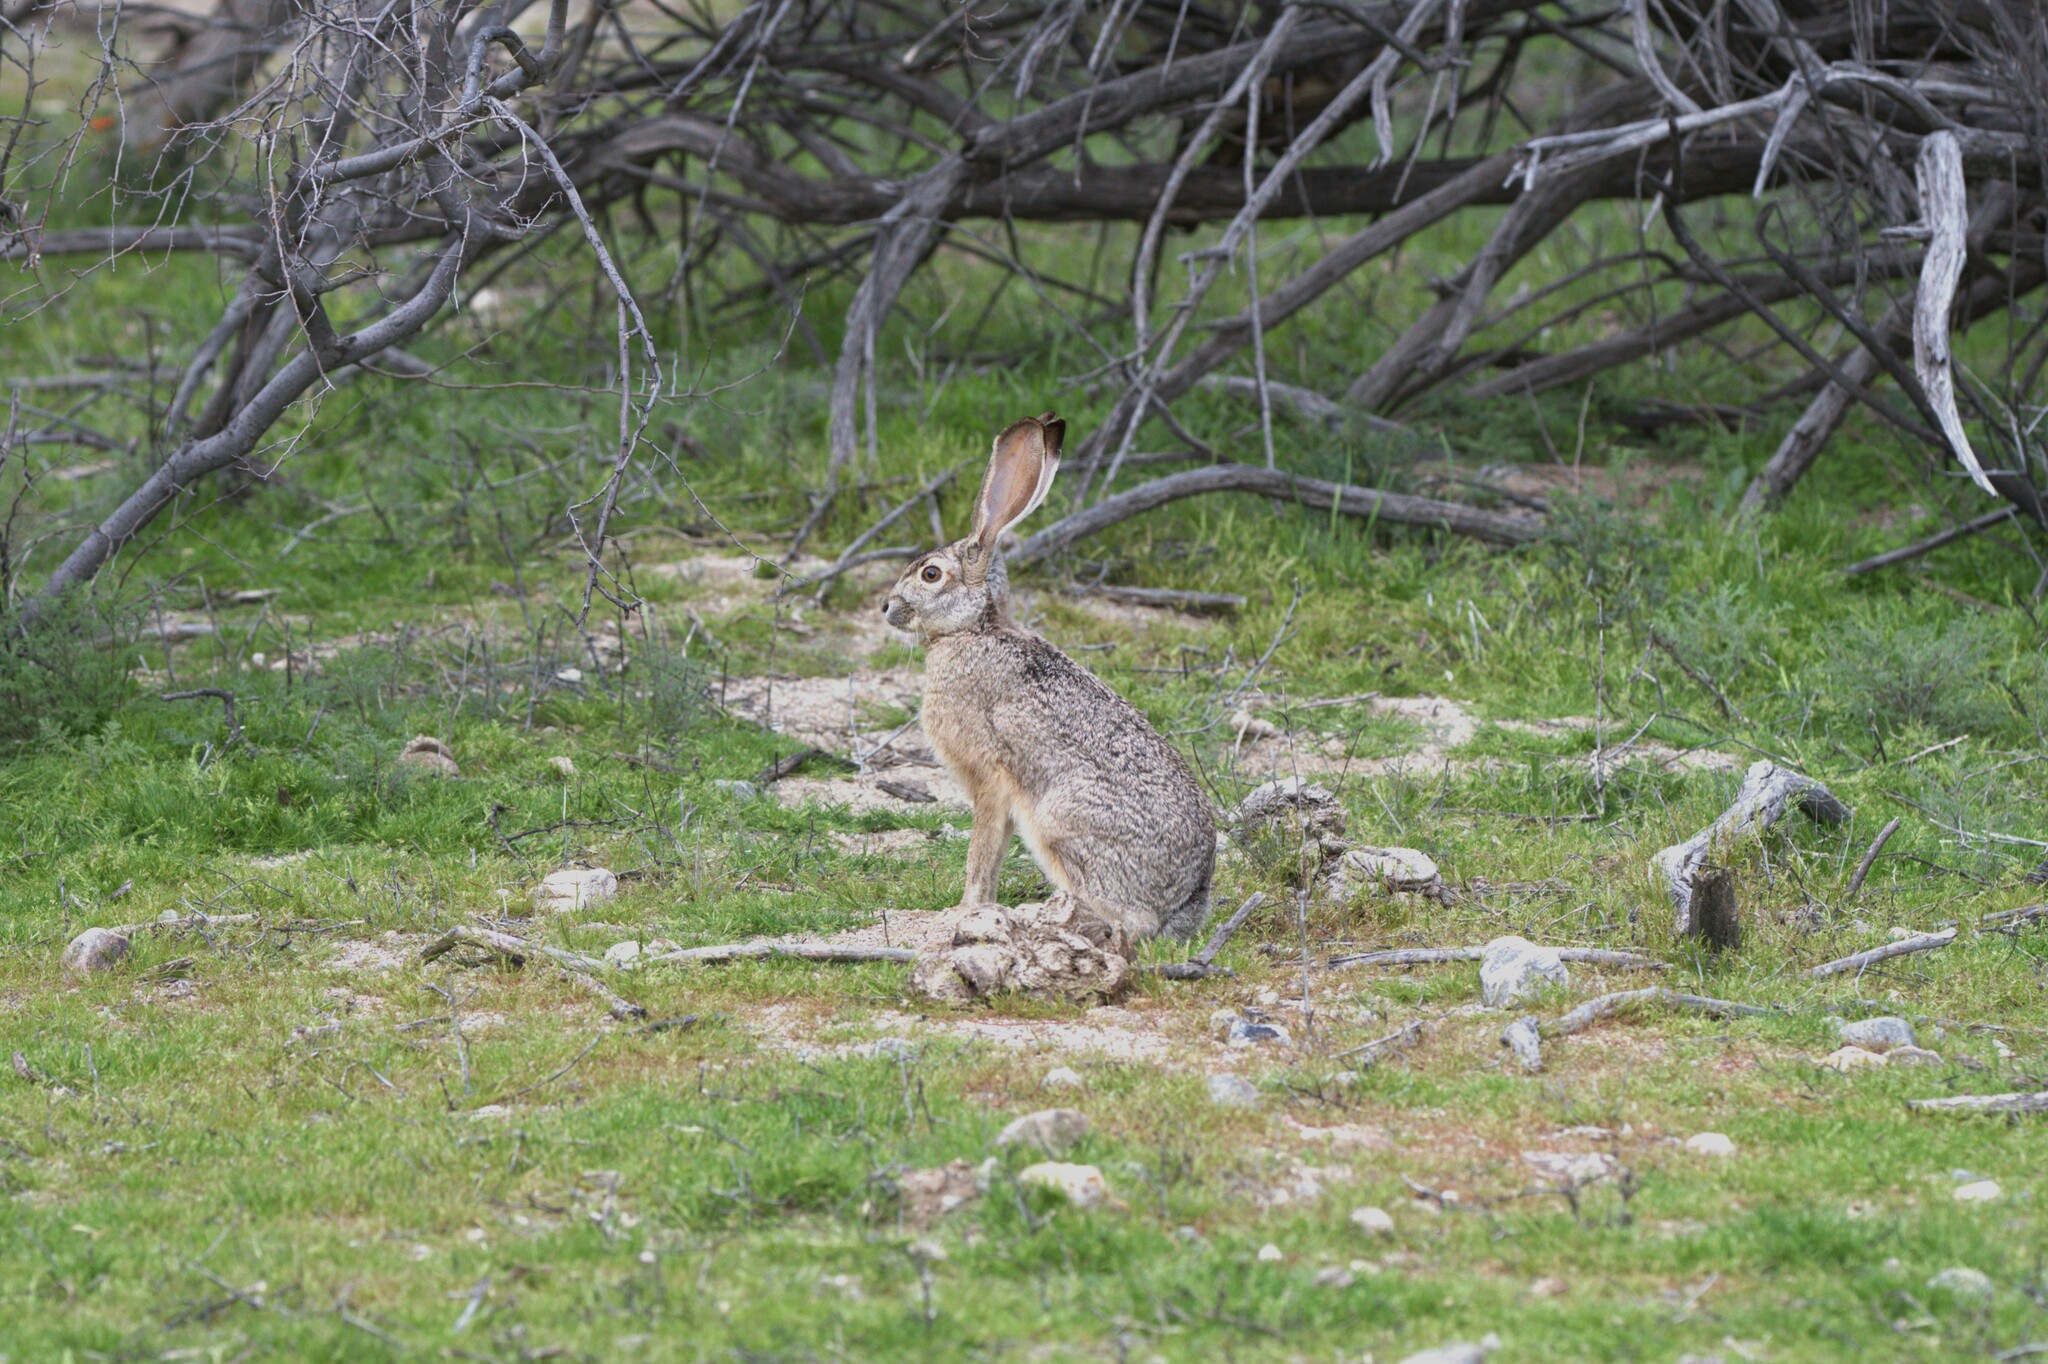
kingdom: Animalia
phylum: Chordata
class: Mammalia
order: Lagomorpha
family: Leporidae
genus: Lepus
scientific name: Lepus californicus
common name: Black-tailed jackrabbit
